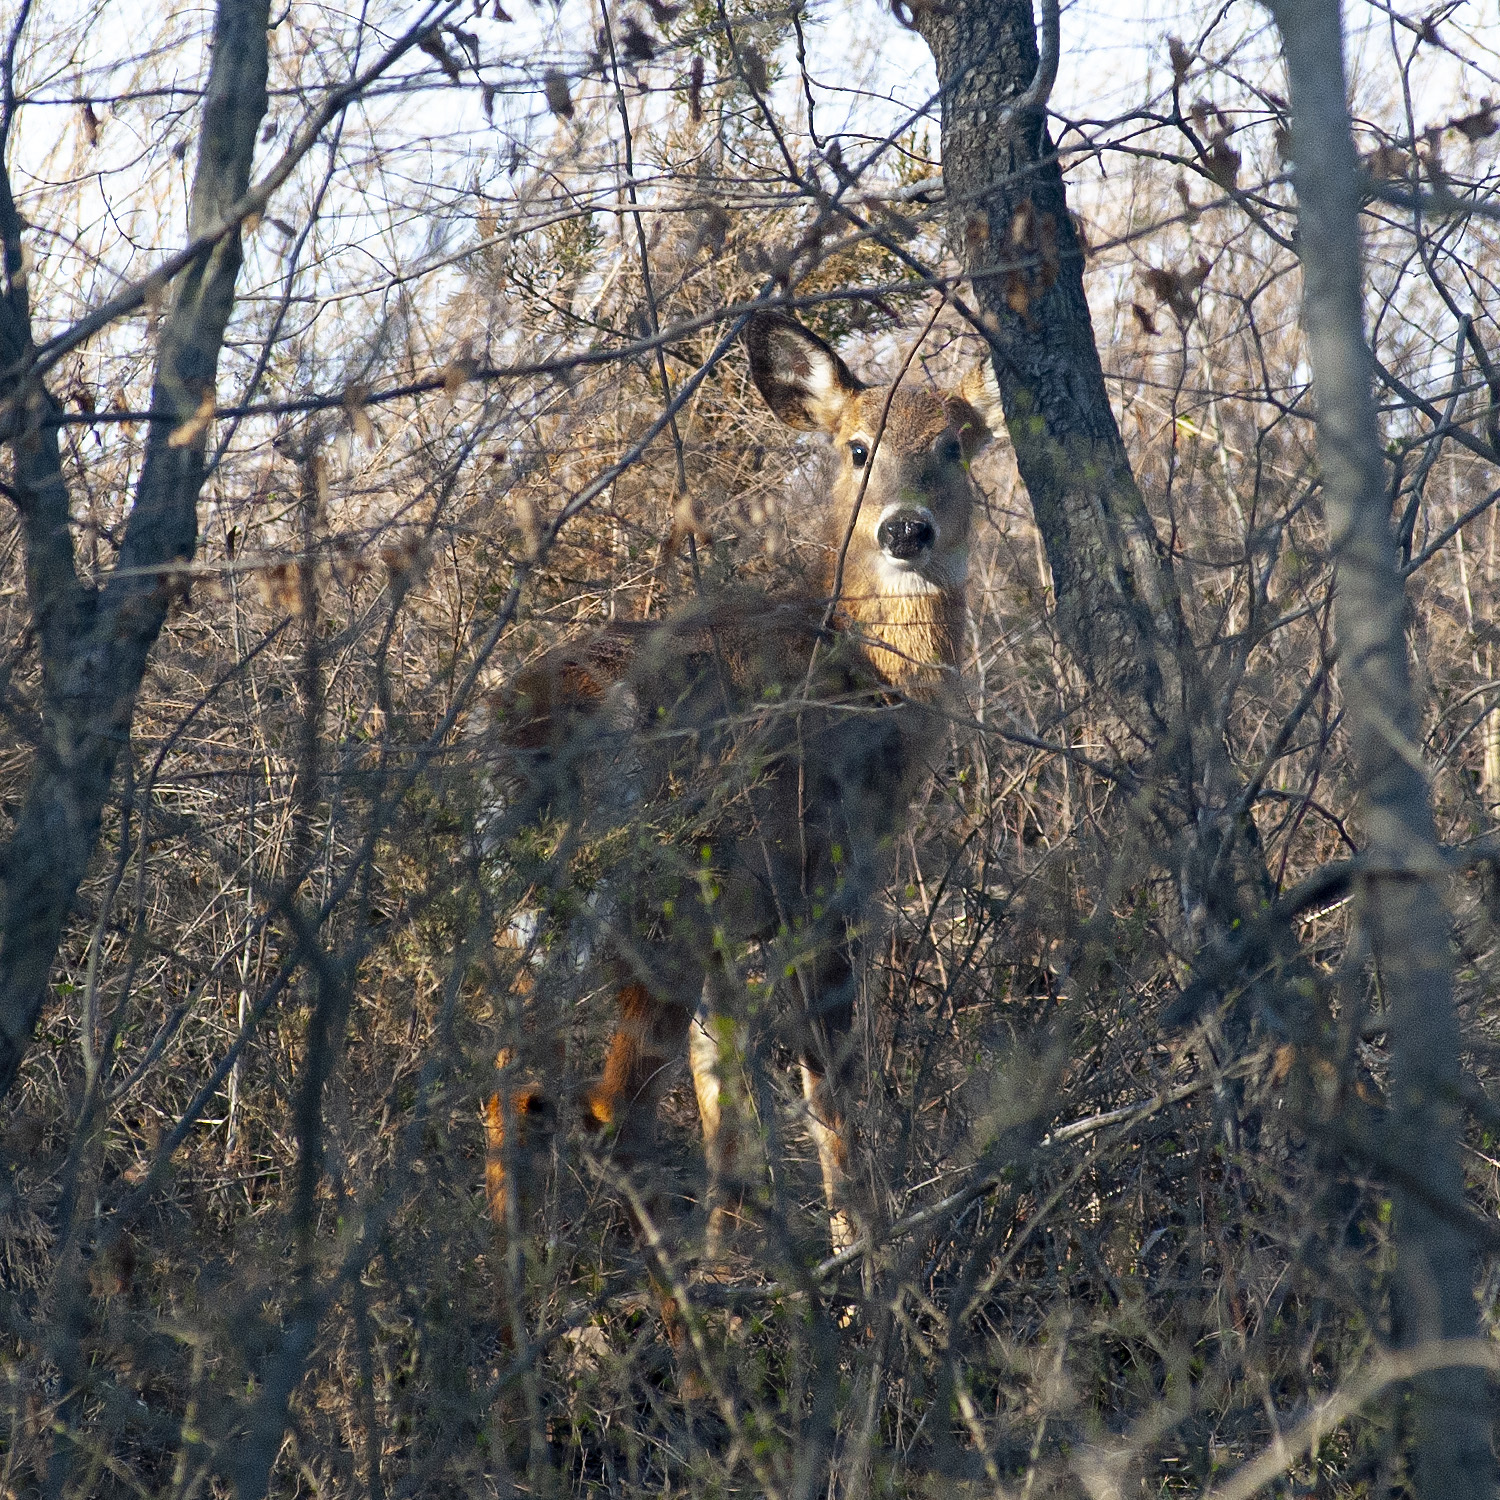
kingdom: Animalia
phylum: Chordata
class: Mammalia
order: Artiodactyla
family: Cervidae
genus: Odocoileus
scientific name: Odocoileus virginianus
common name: White-tailed deer
